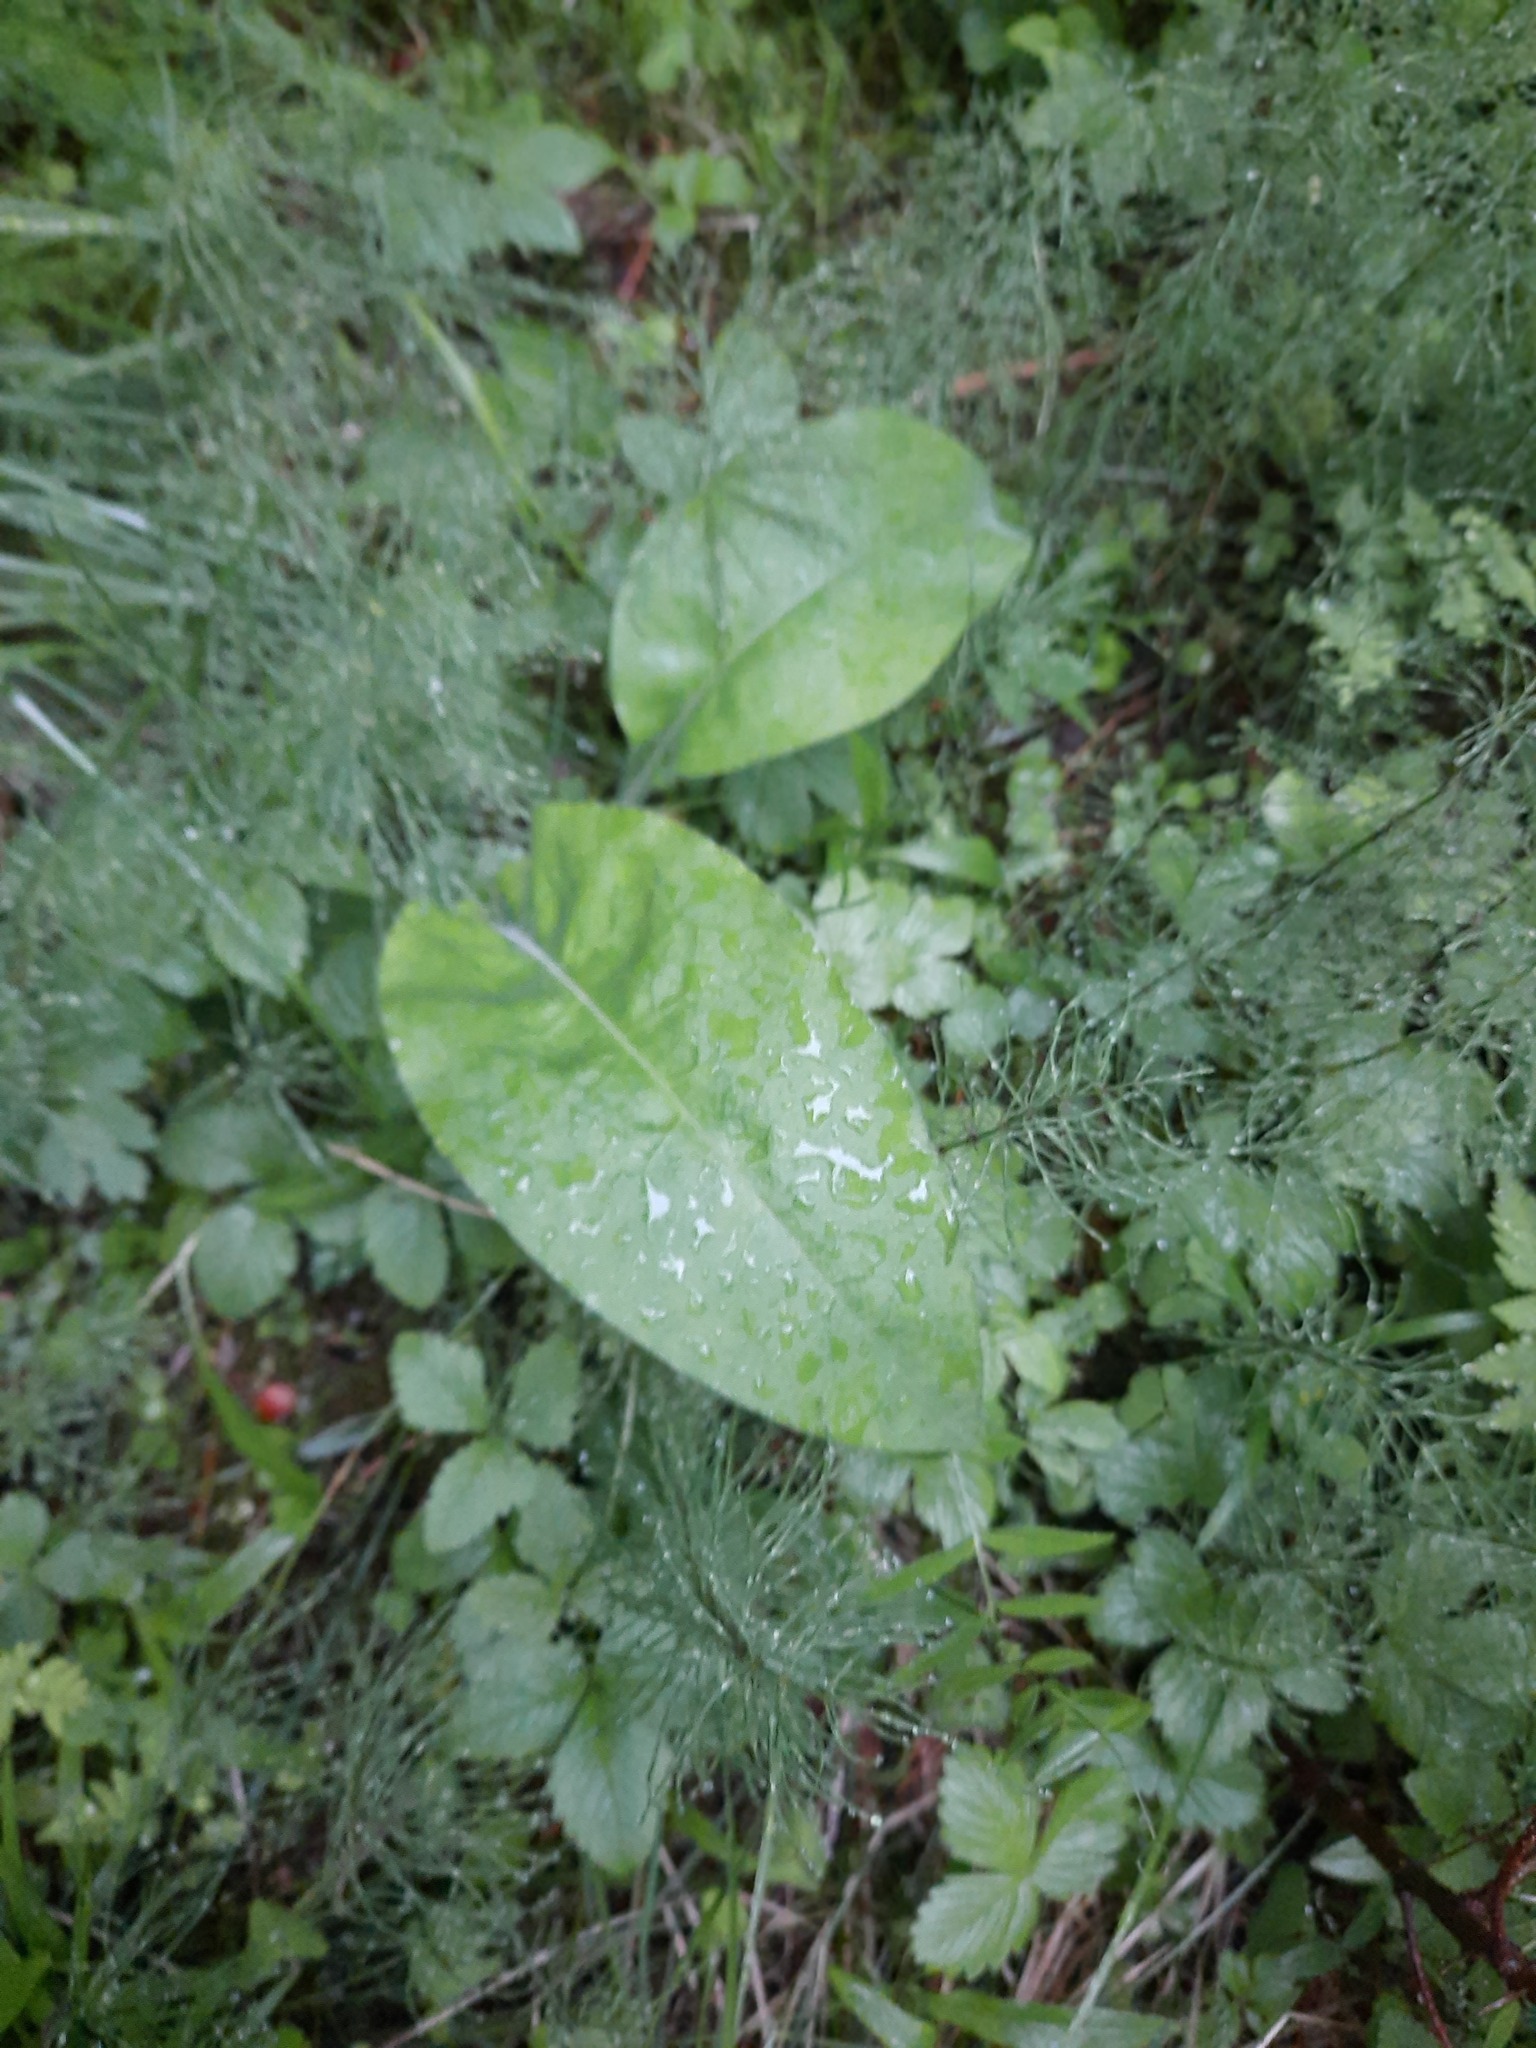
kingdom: Plantae
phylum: Tracheophyta
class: Magnoliopsida
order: Boraginales
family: Boraginaceae
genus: Pulmonaria
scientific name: Pulmonaria mollis
